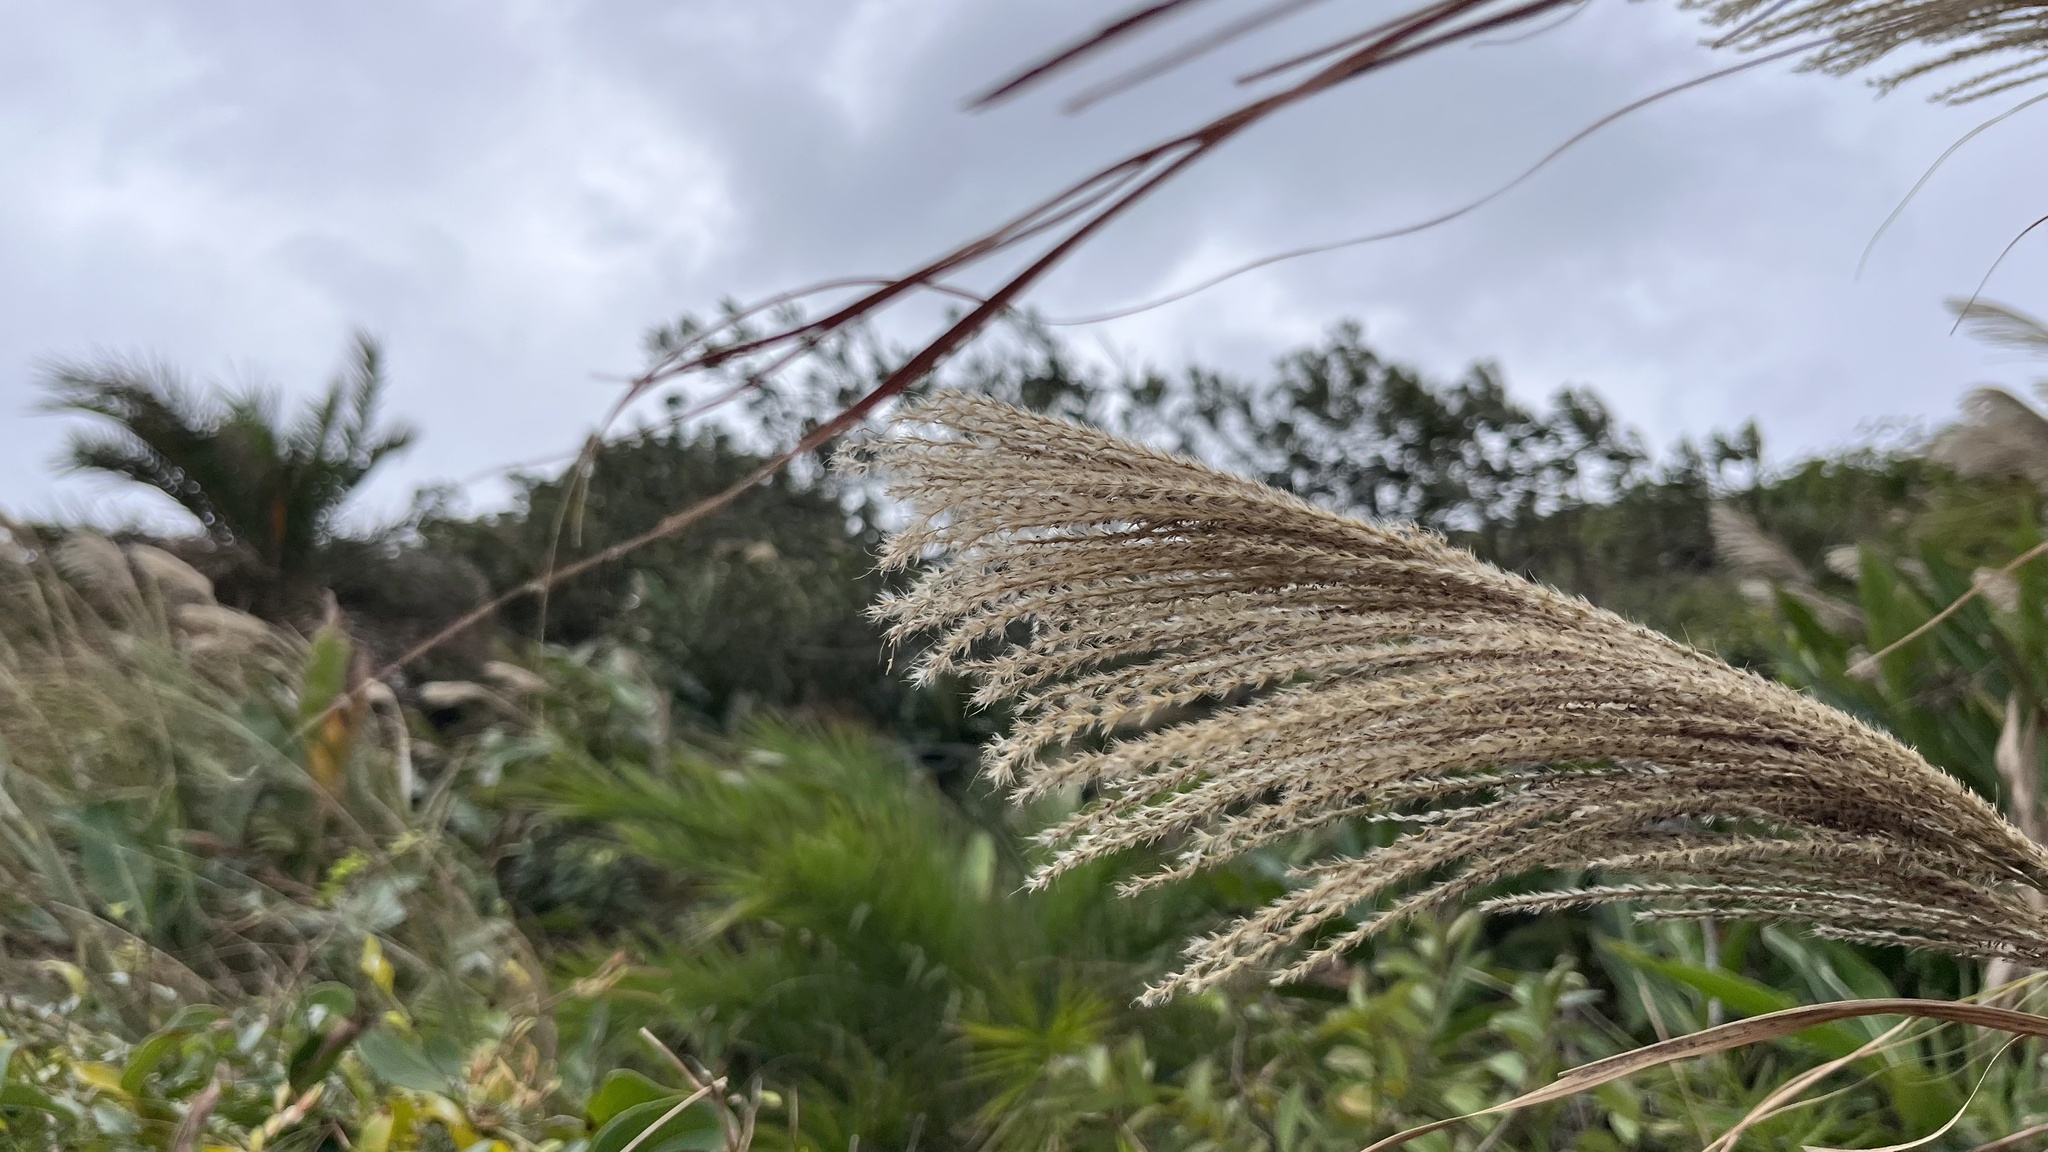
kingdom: Plantae
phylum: Tracheophyta
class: Liliopsida
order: Poales
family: Poaceae
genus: Miscanthus
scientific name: Miscanthus sinensis
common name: Chinese silvergrass
